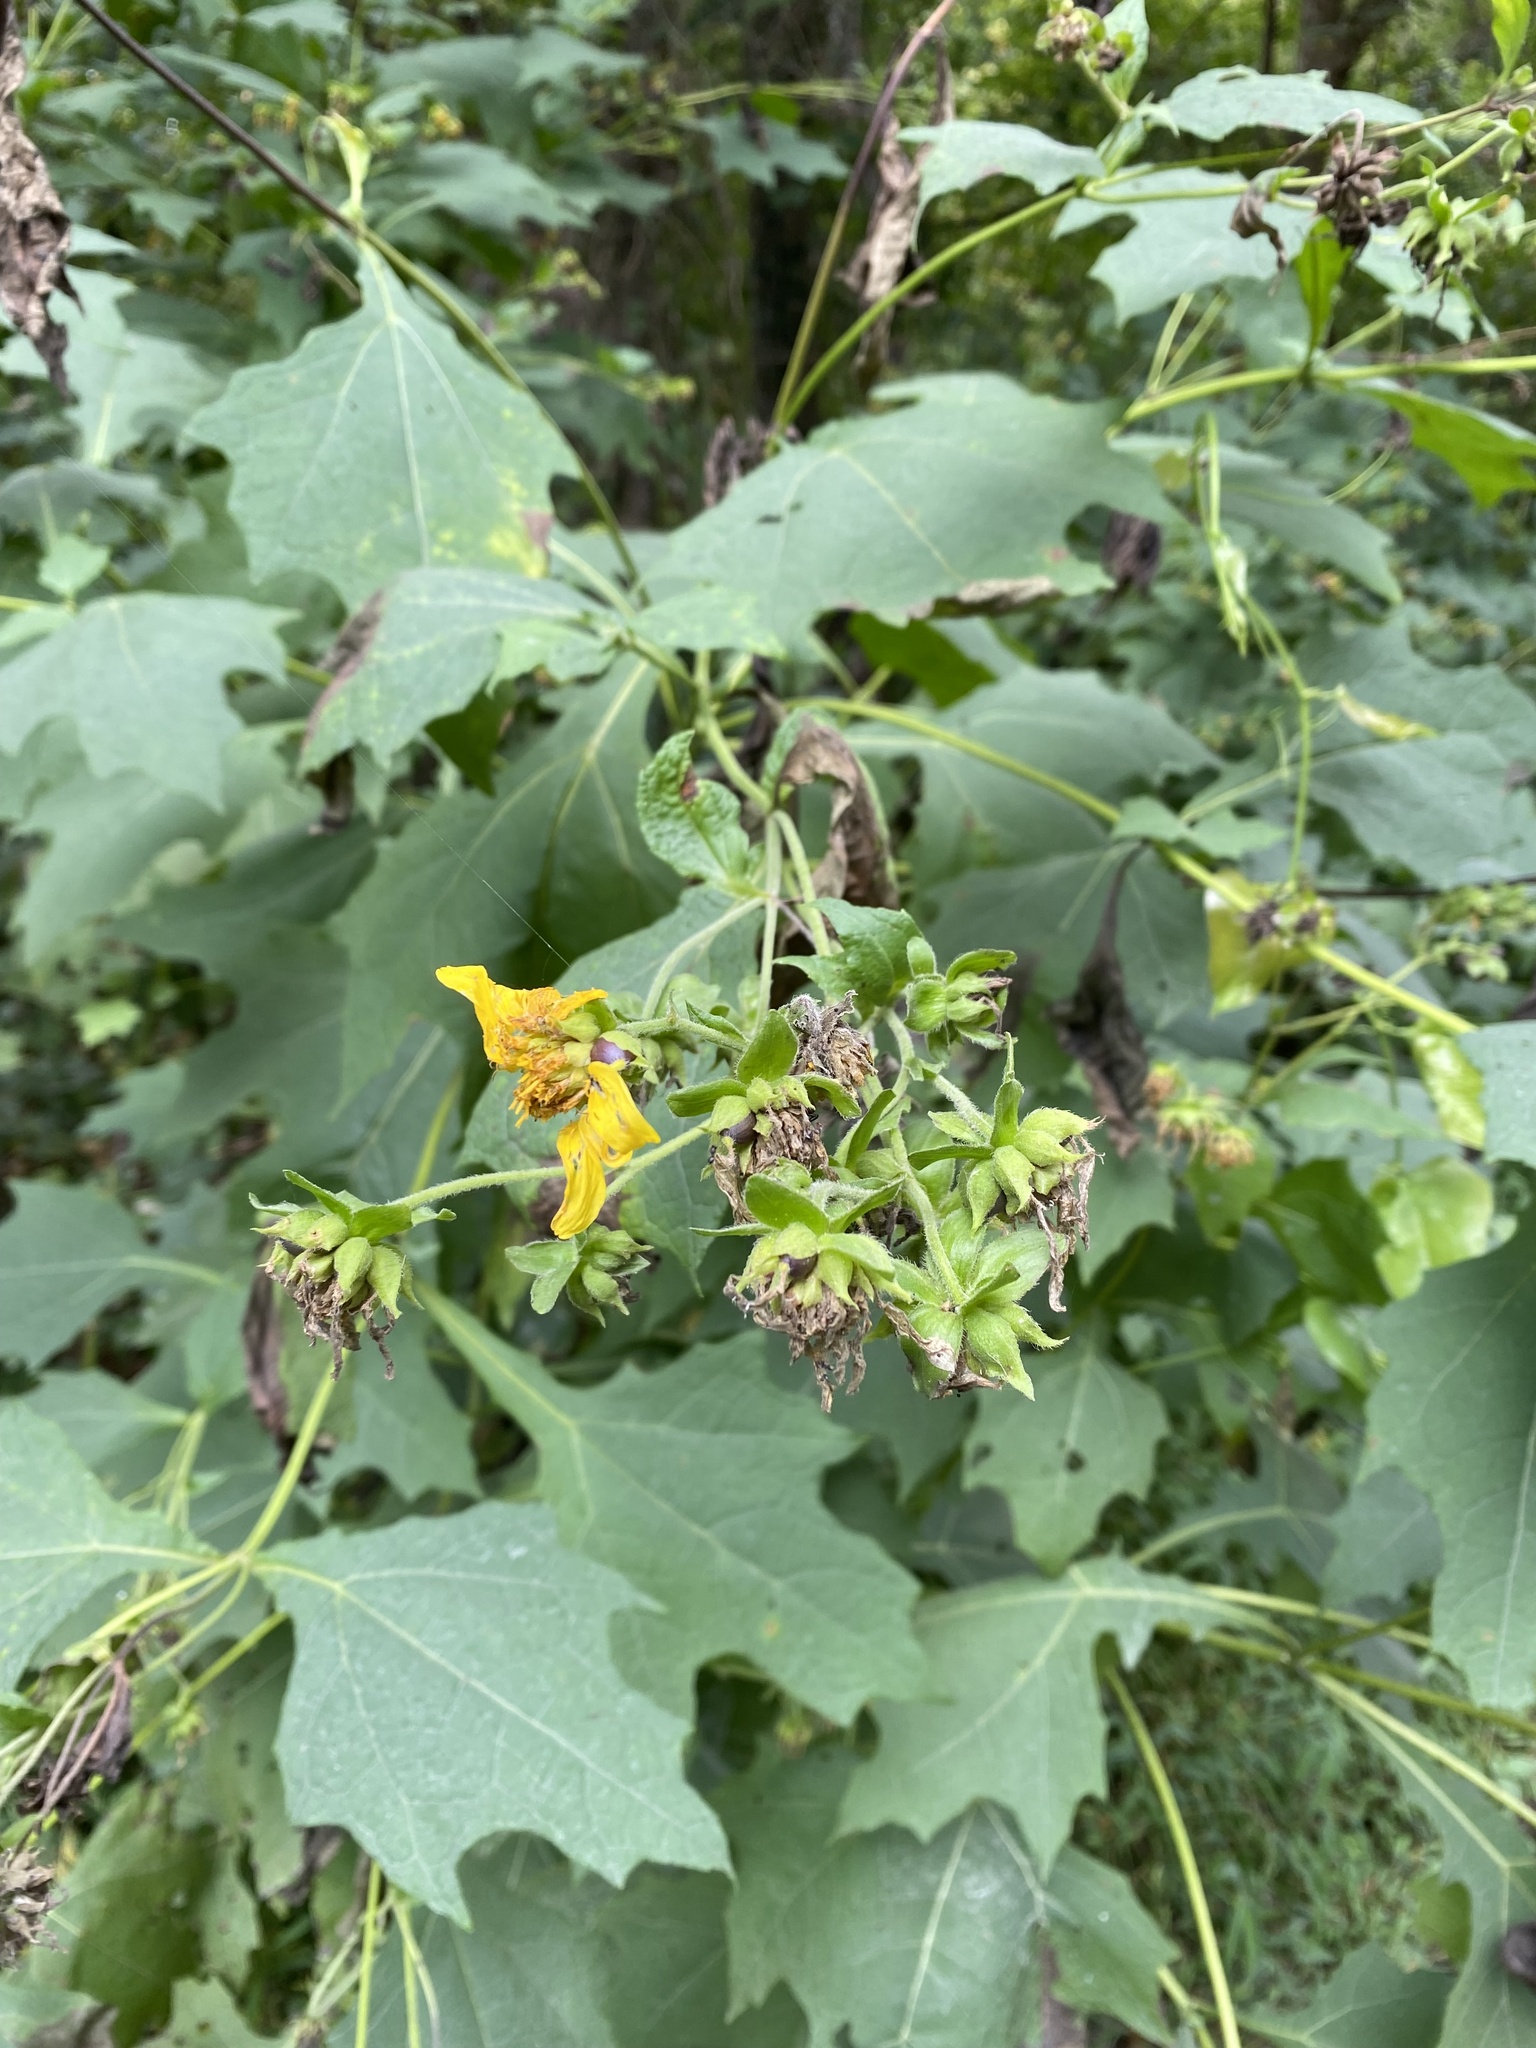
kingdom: Plantae
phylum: Tracheophyta
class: Magnoliopsida
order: Asterales
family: Asteraceae
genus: Smallanthus
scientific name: Smallanthus uvedalia
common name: Bear's-foot
